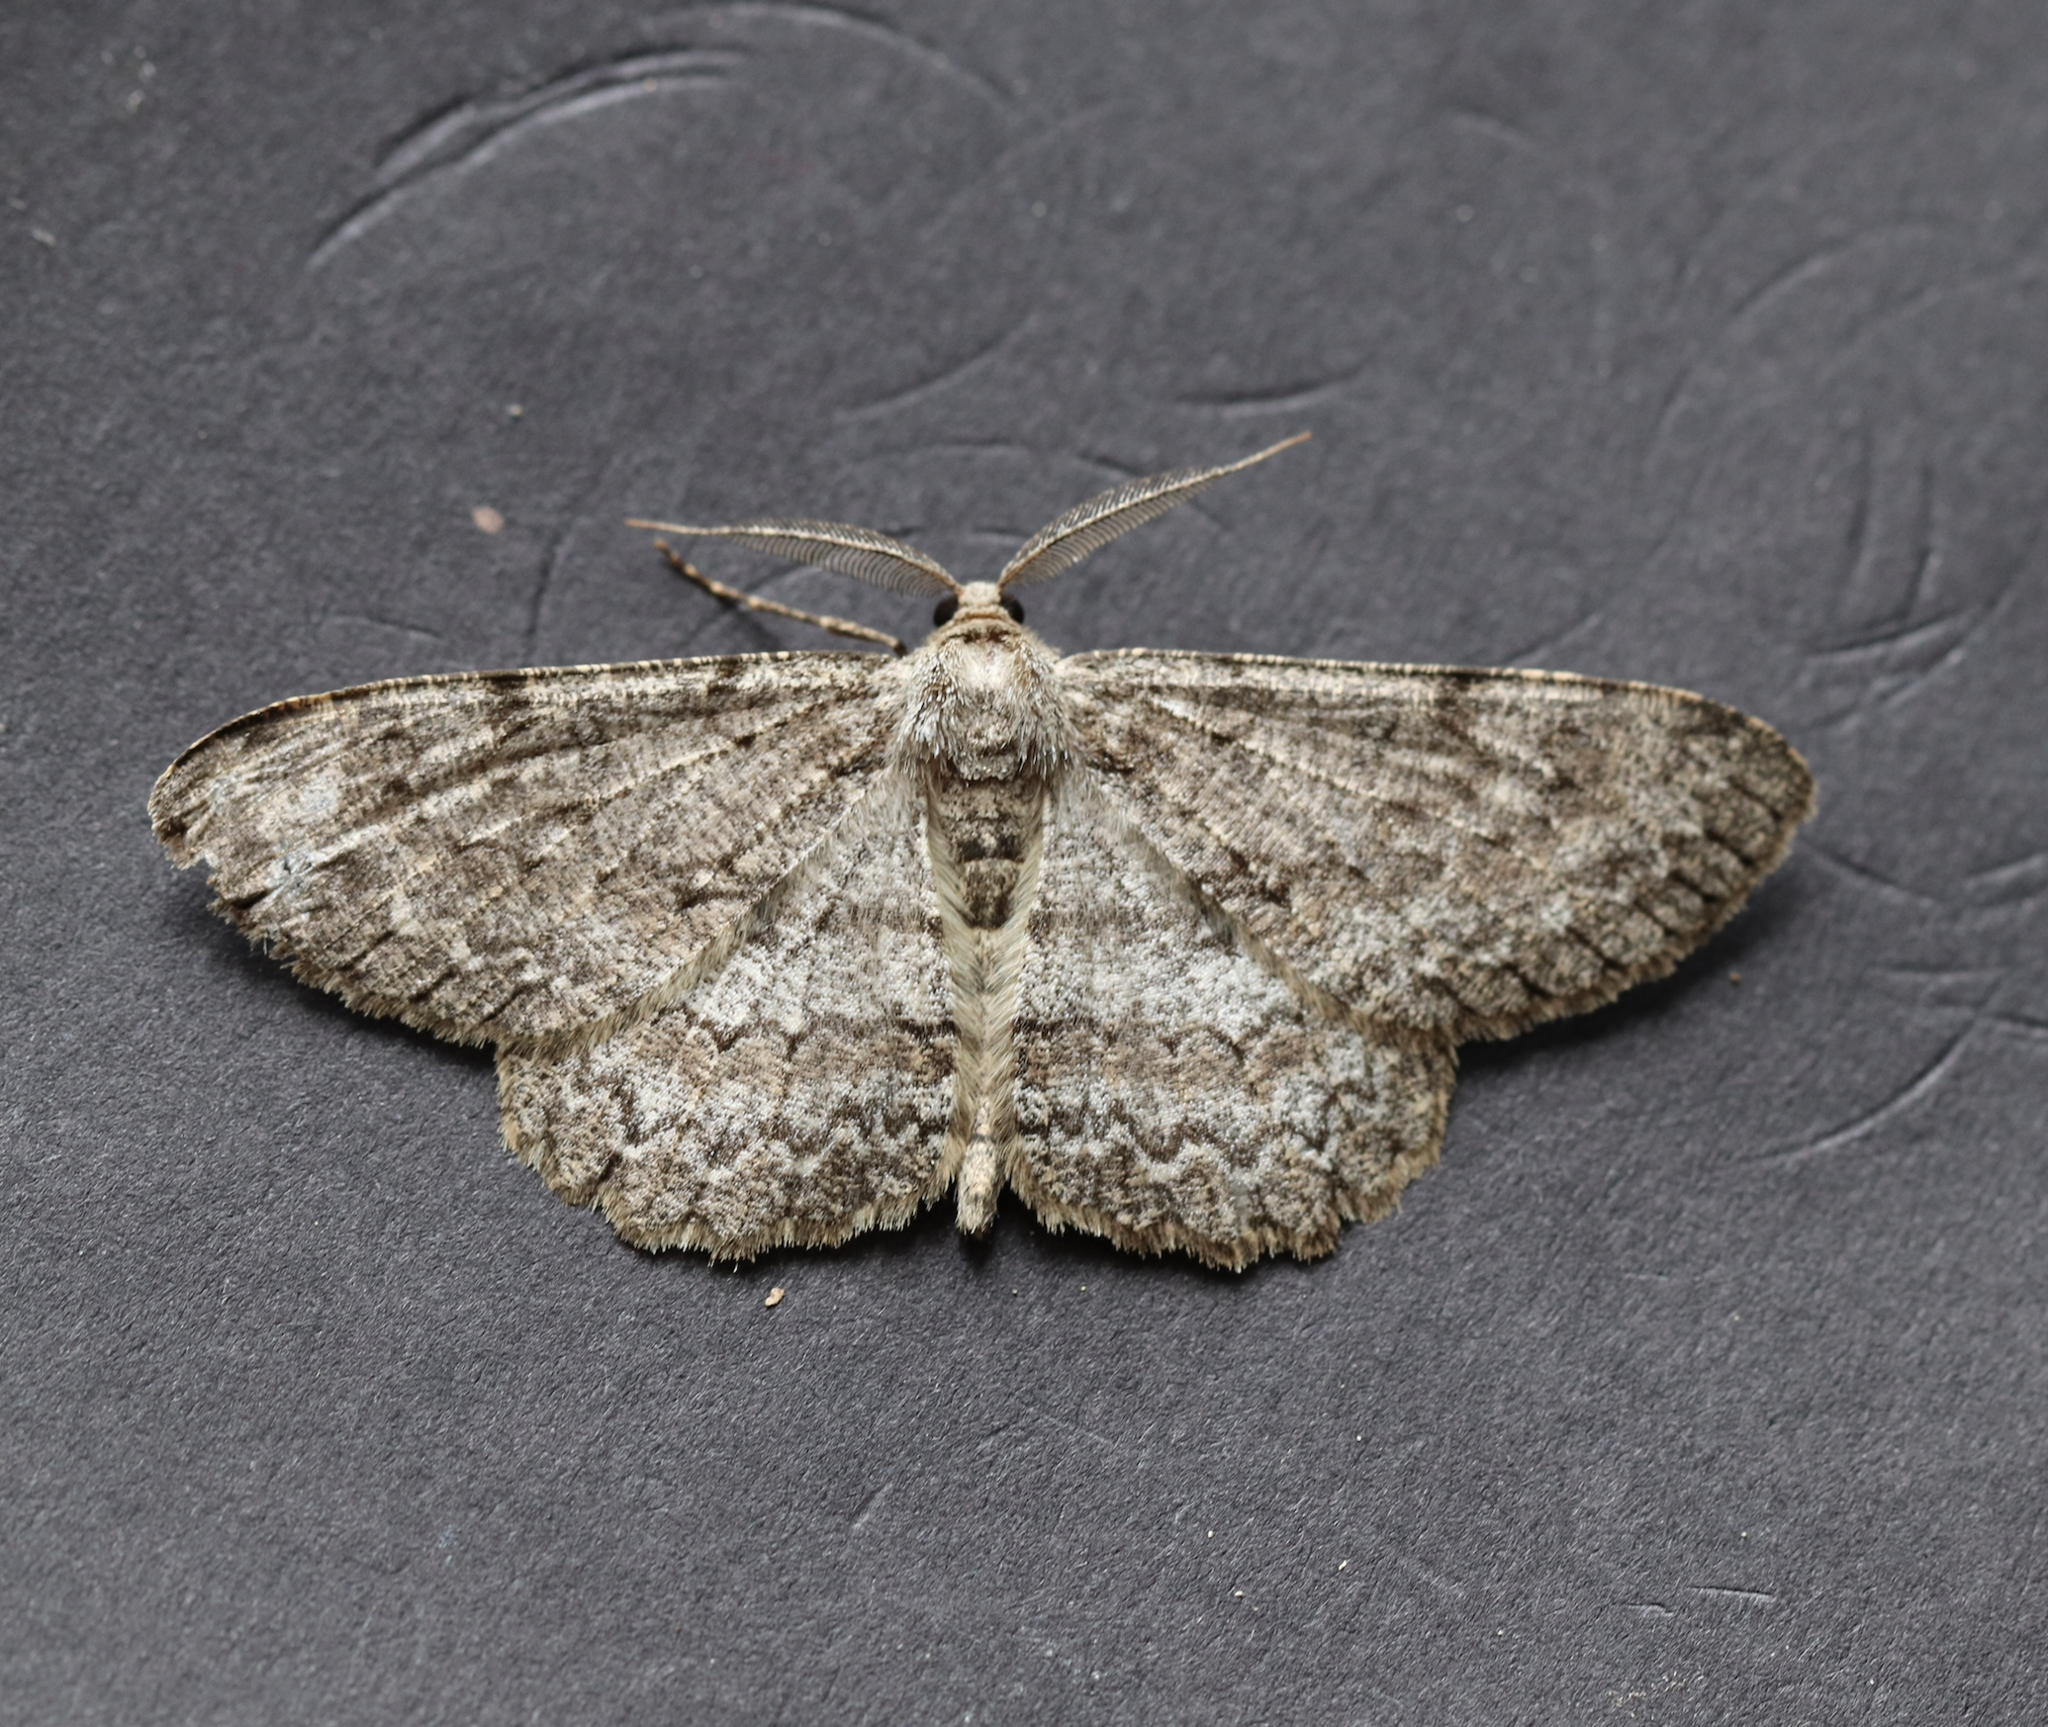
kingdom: Animalia
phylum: Arthropoda
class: Insecta
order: Lepidoptera
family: Geometridae
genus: Hypomecis
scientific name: Hypomecis punctinalis
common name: Pale oak beauty
